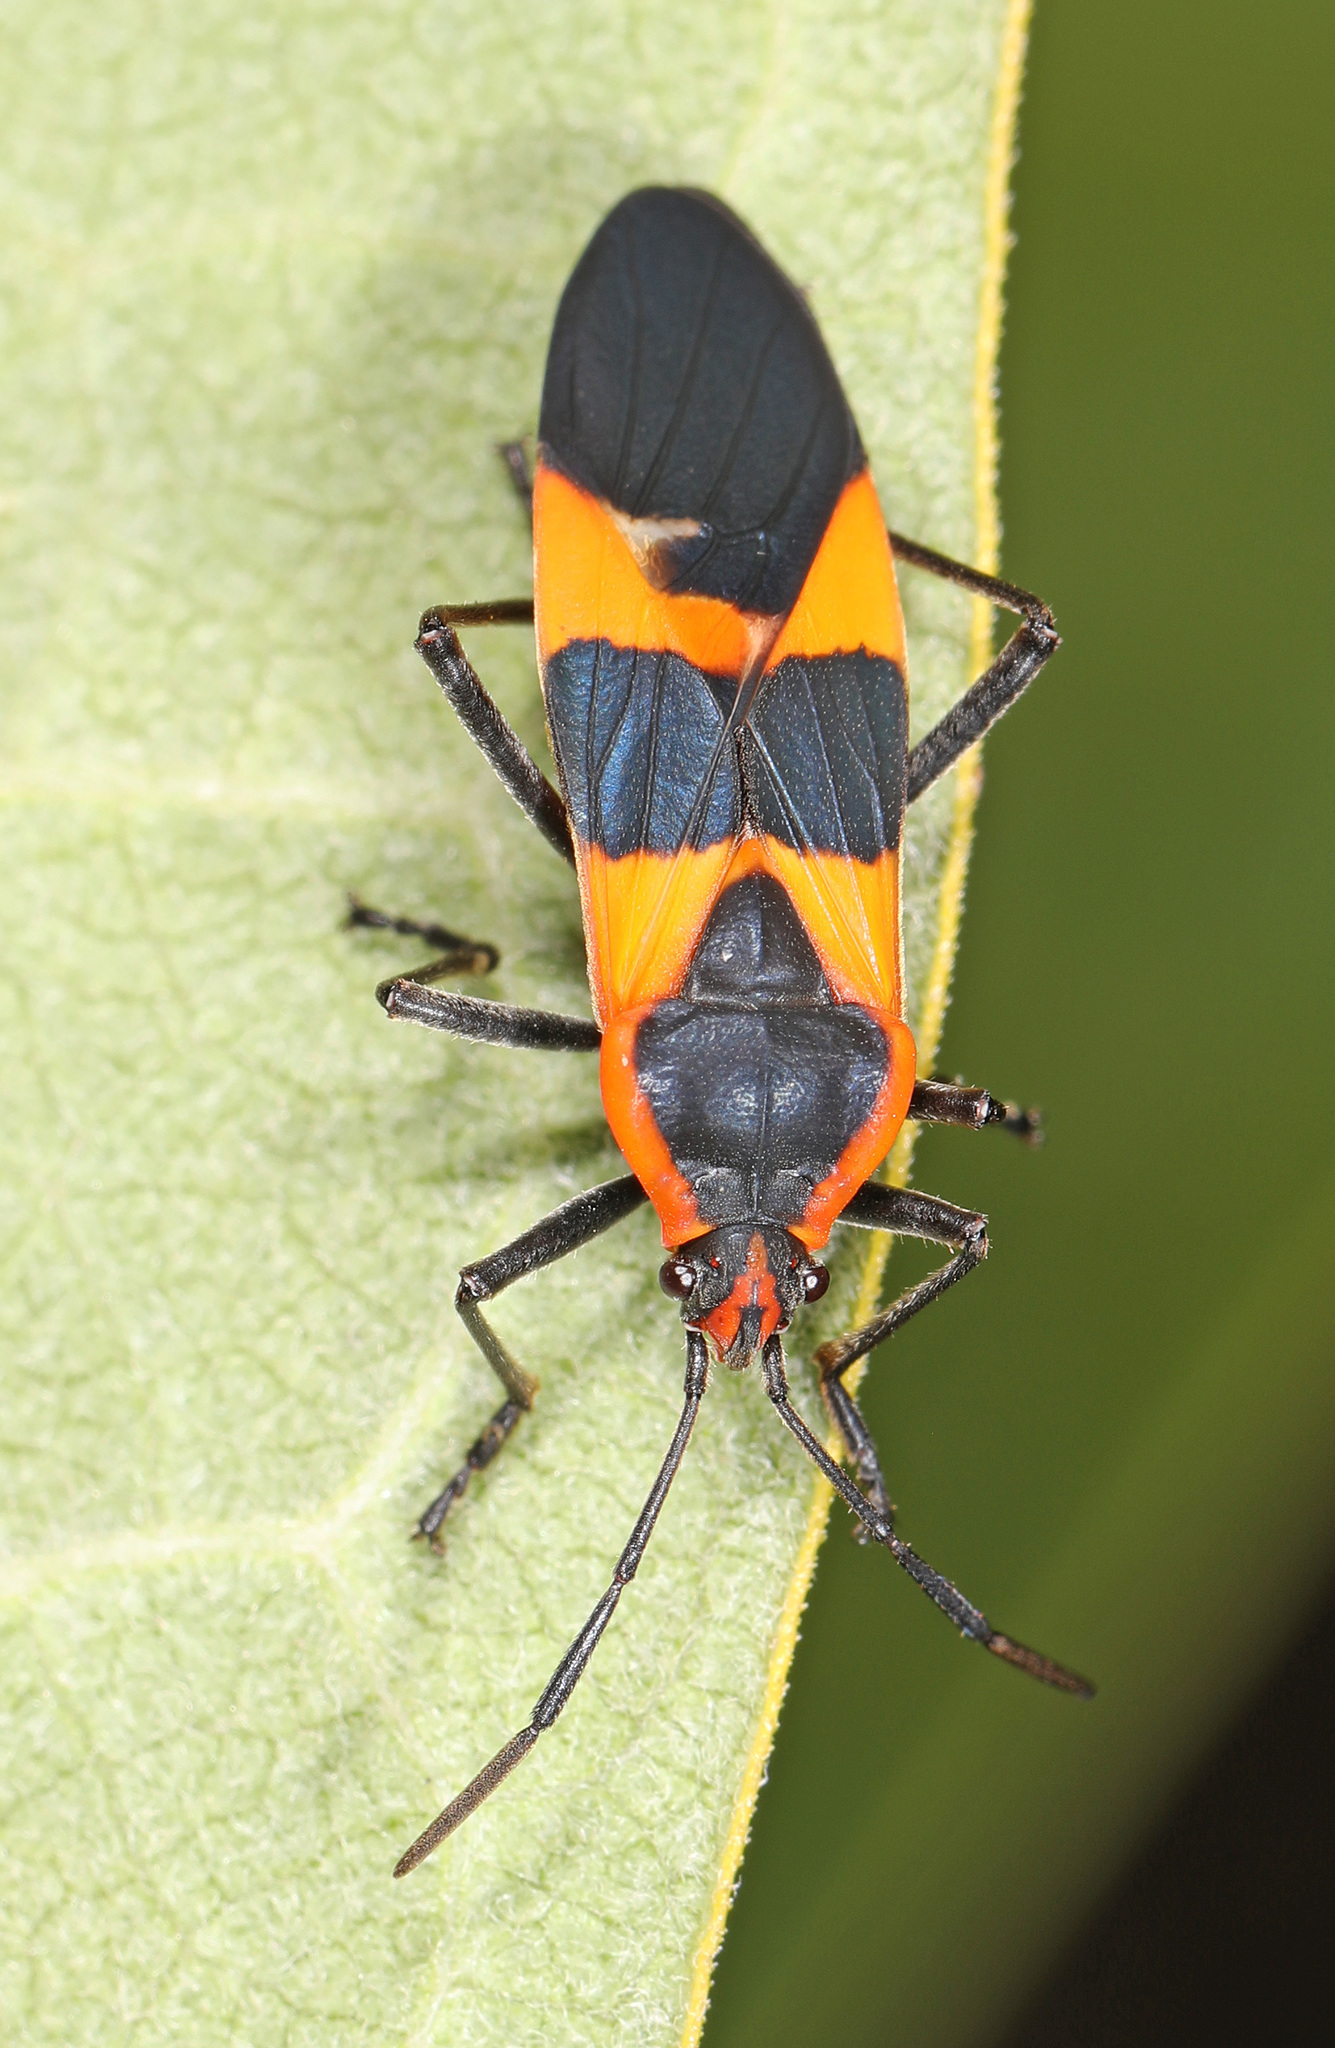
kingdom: Animalia
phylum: Arthropoda
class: Insecta
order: Hemiptera
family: Lygaeidae
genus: Oncopeltus
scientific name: Oncopeltus fasciatus
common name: Large milkweed bug
